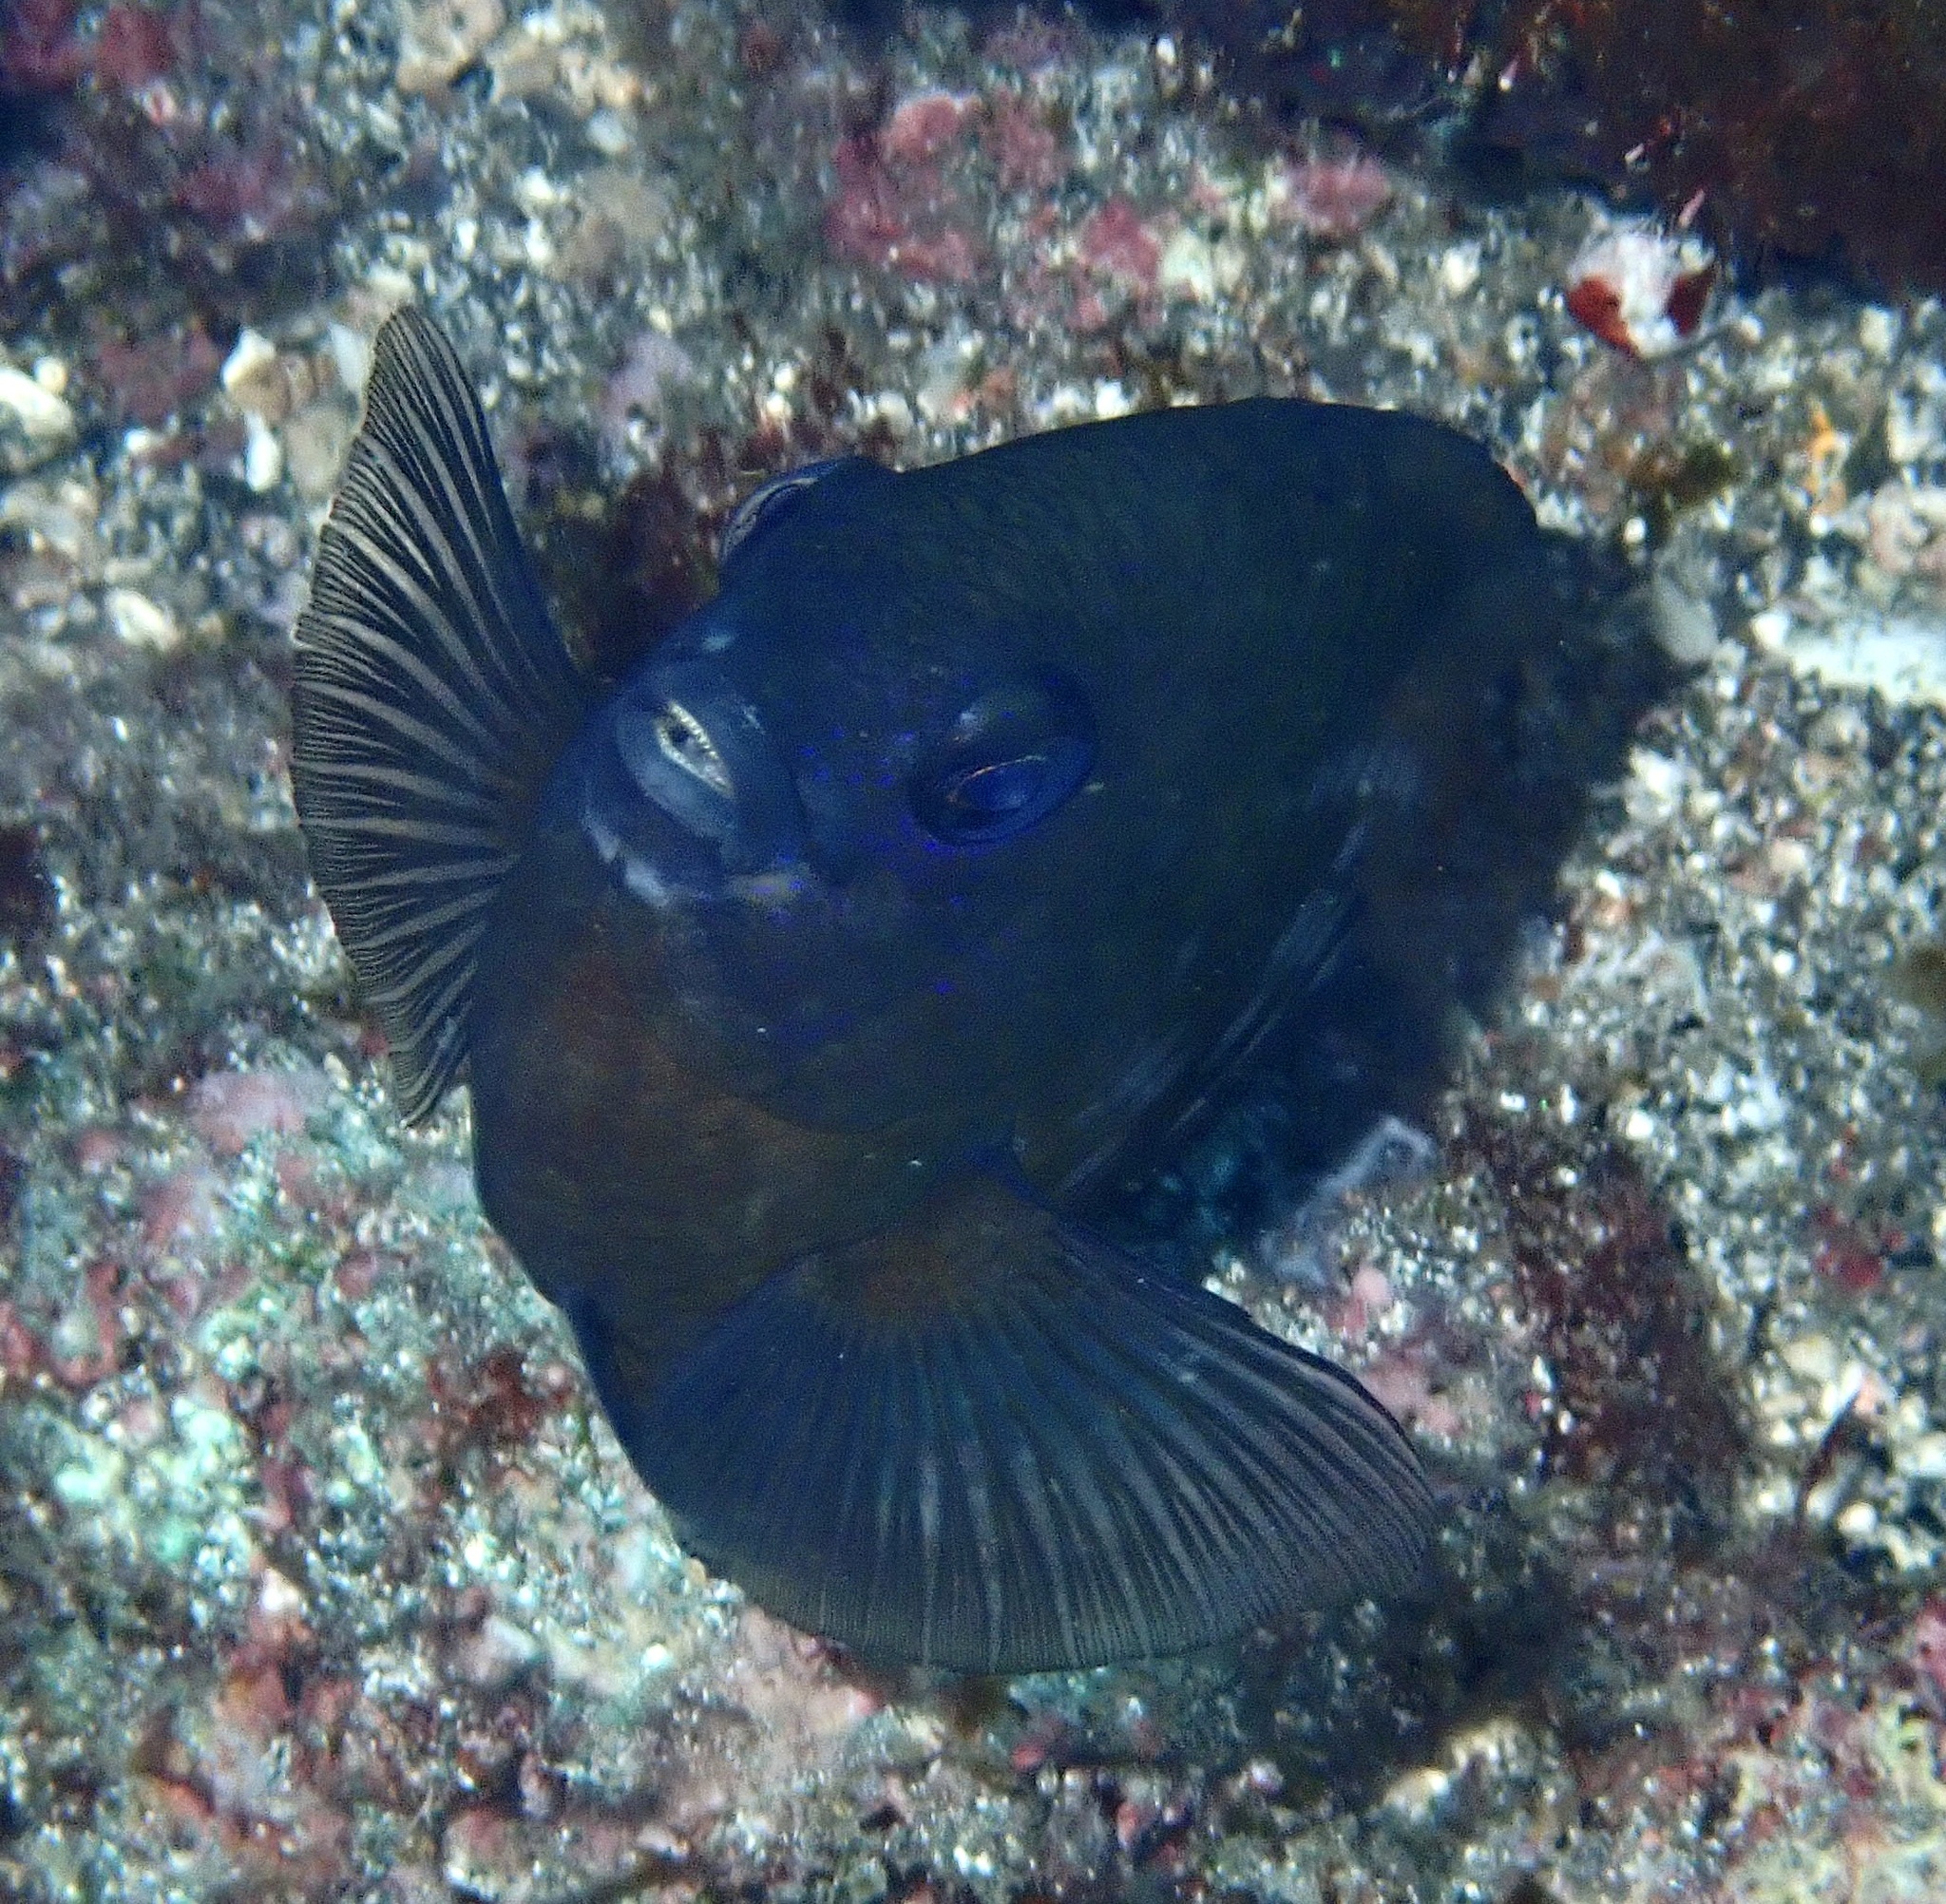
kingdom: Animalia
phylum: Chordata
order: Perciformes
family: Pomacentridae
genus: Stegastes
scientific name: Stegastes imbricatus
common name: Cape verde gregory
